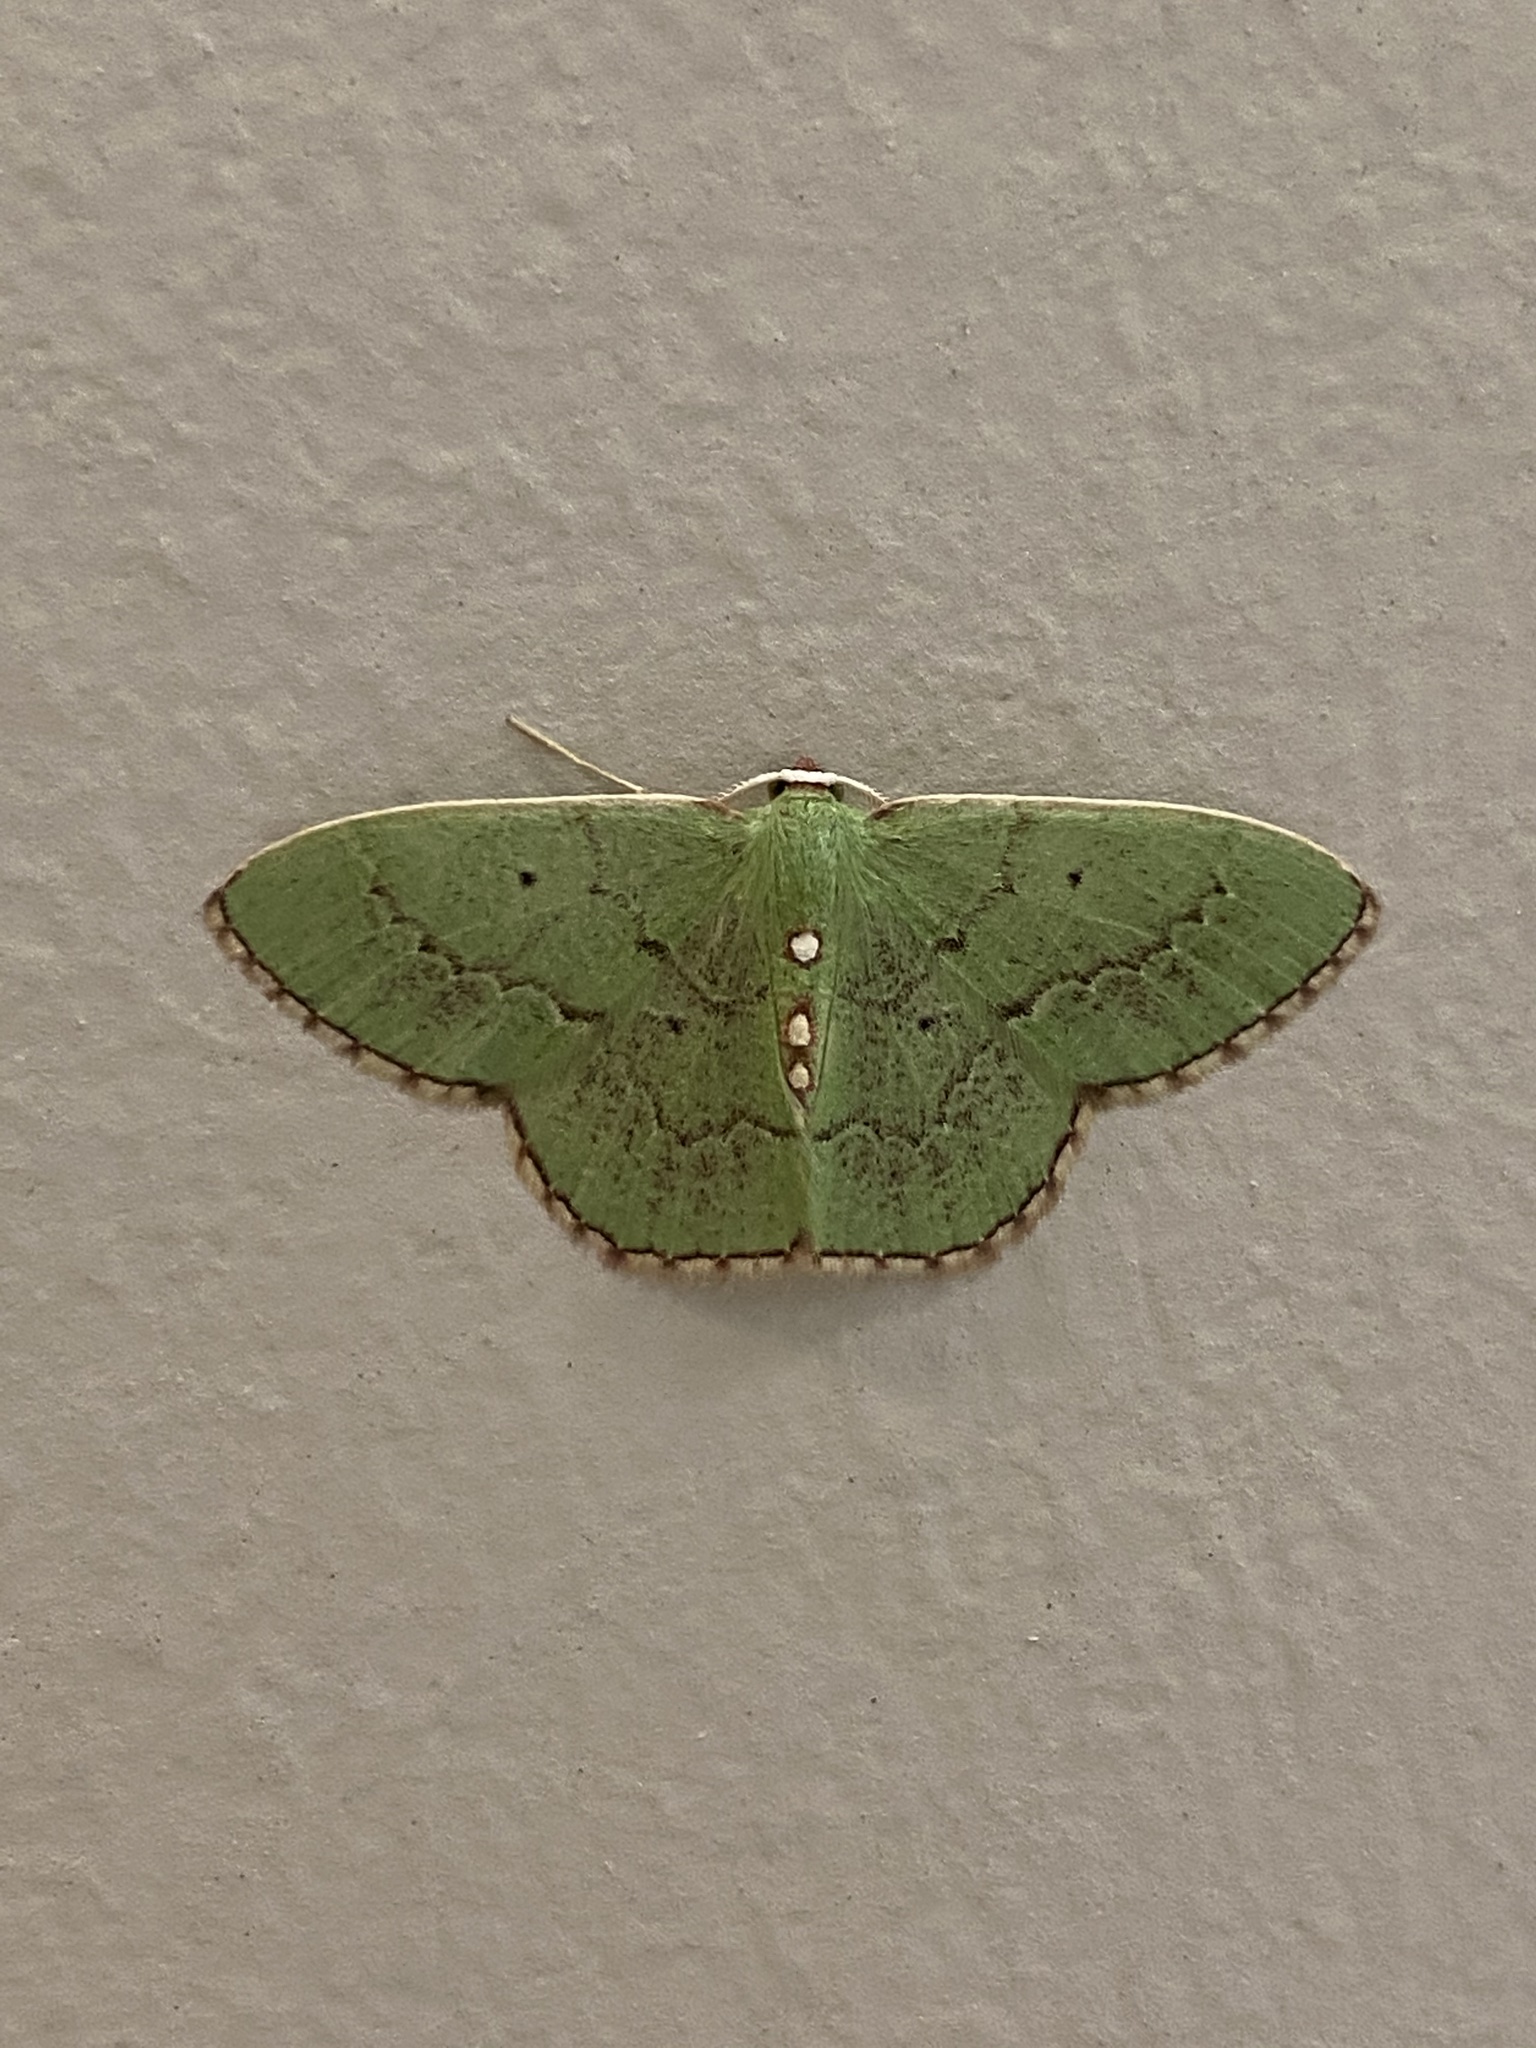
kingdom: Animalia
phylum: Arthropoda
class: Insecta
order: Lepidoptera
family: Geometridae
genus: Nemoria
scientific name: Nemoria lixaria
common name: Red-bordered emerald
